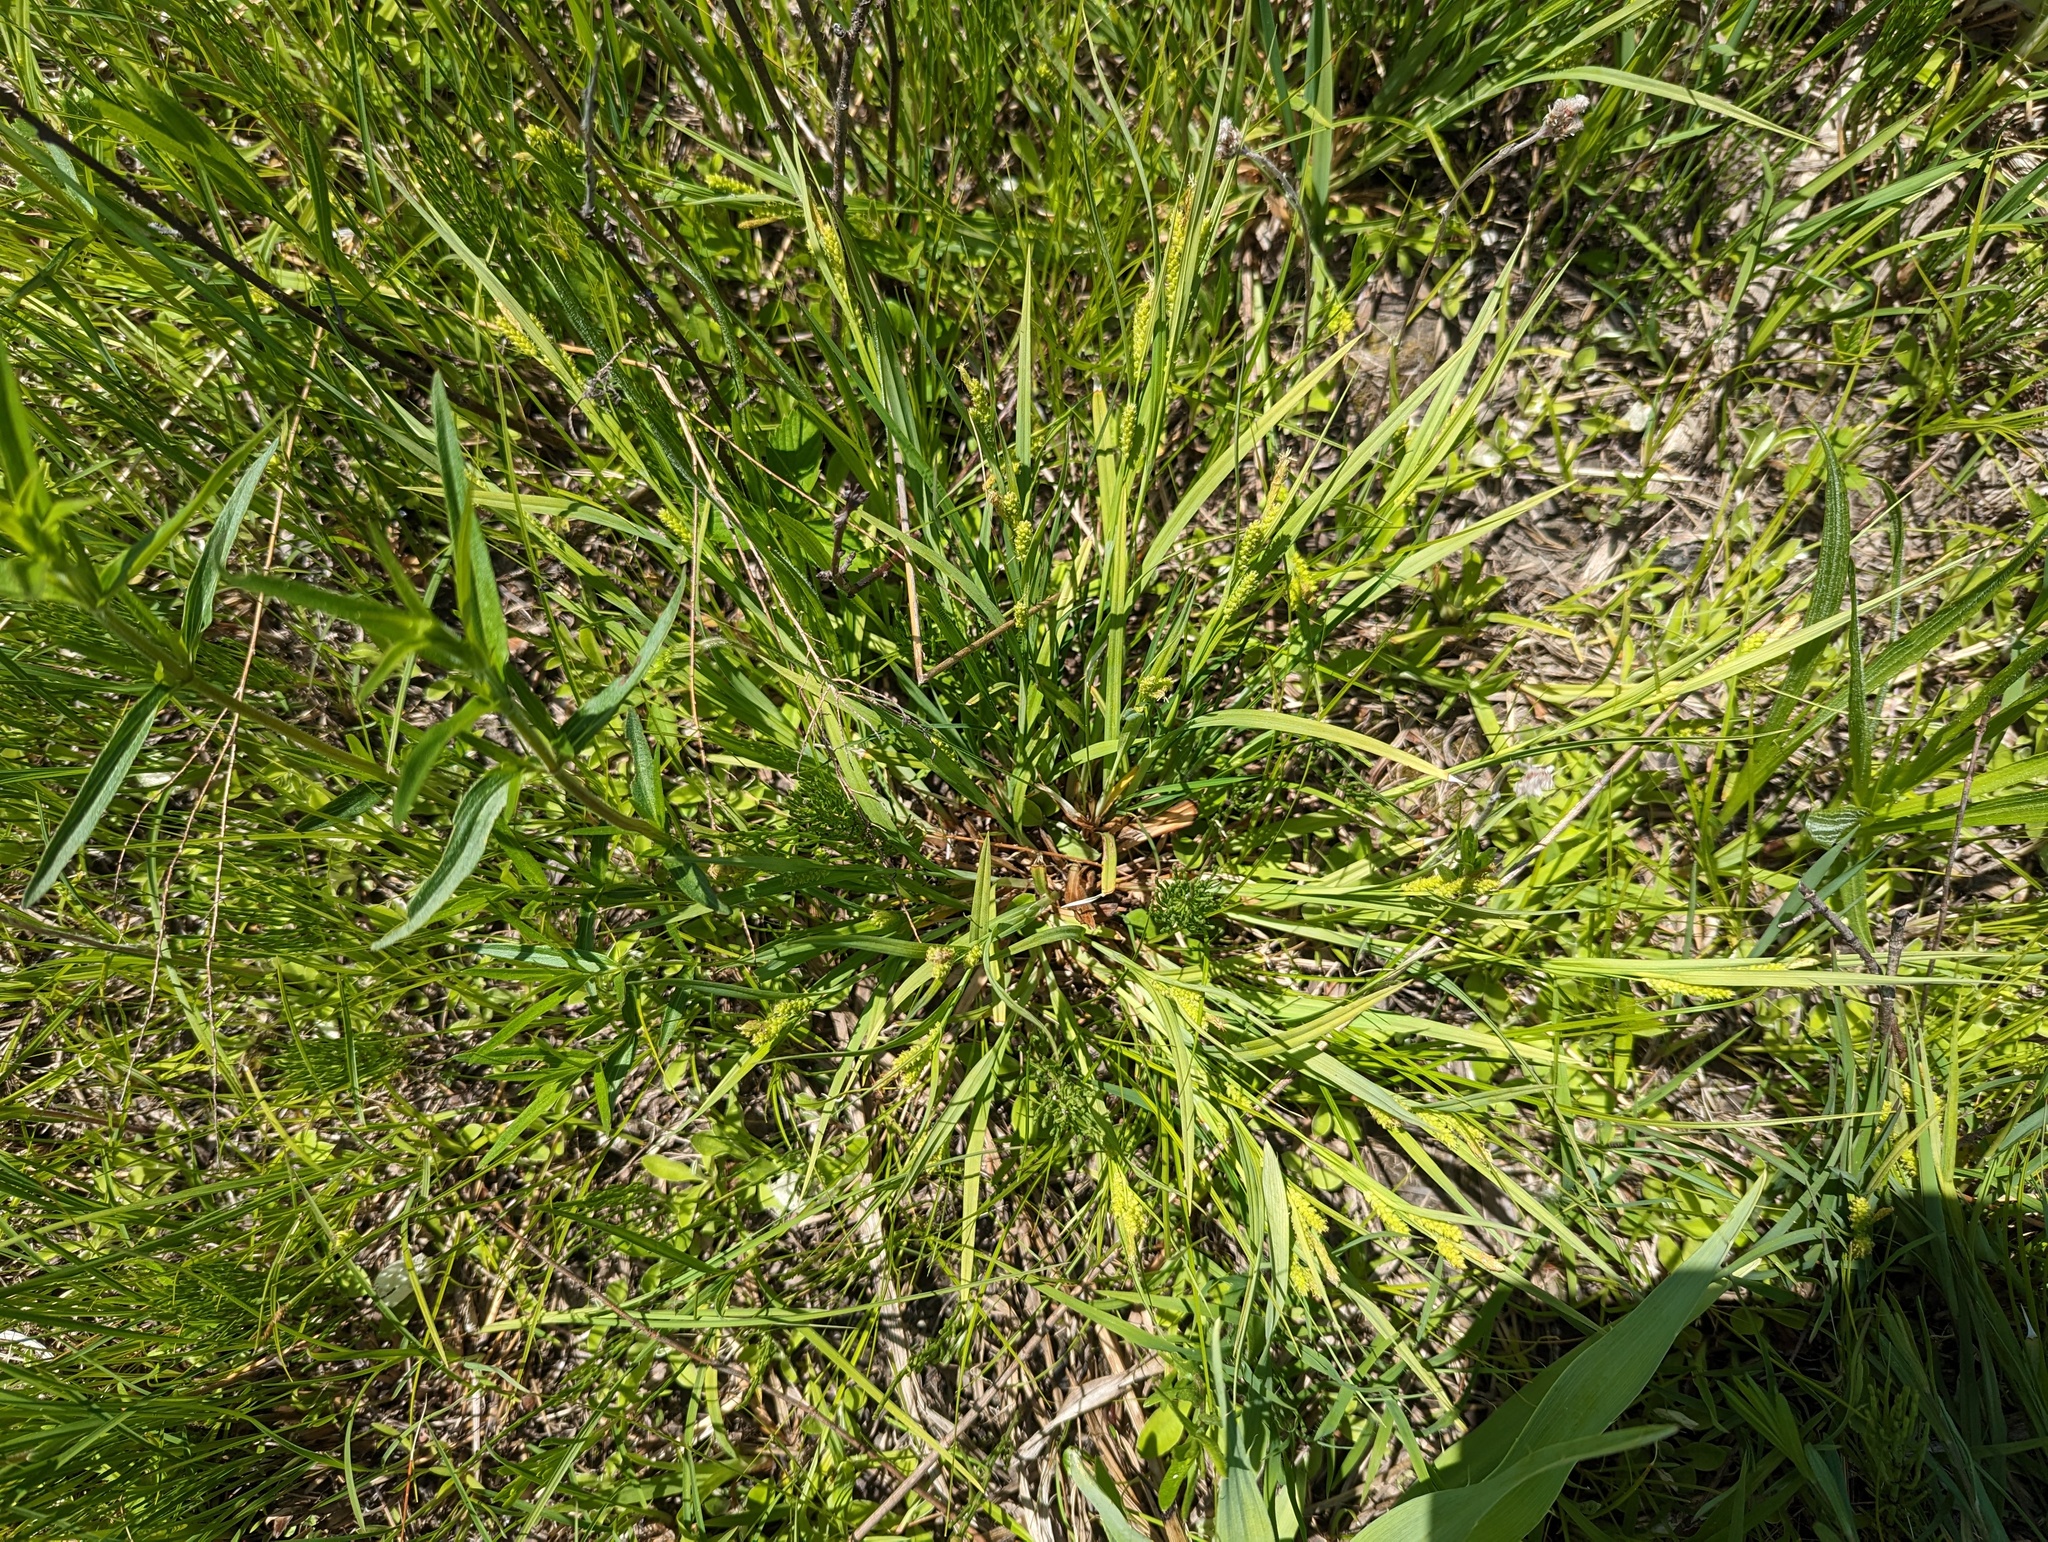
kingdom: Plantae
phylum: Tracheophyta
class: Liliopsida
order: Poales
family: Cyperaceae
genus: Carex
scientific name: Carex granularis
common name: Granular sedge
